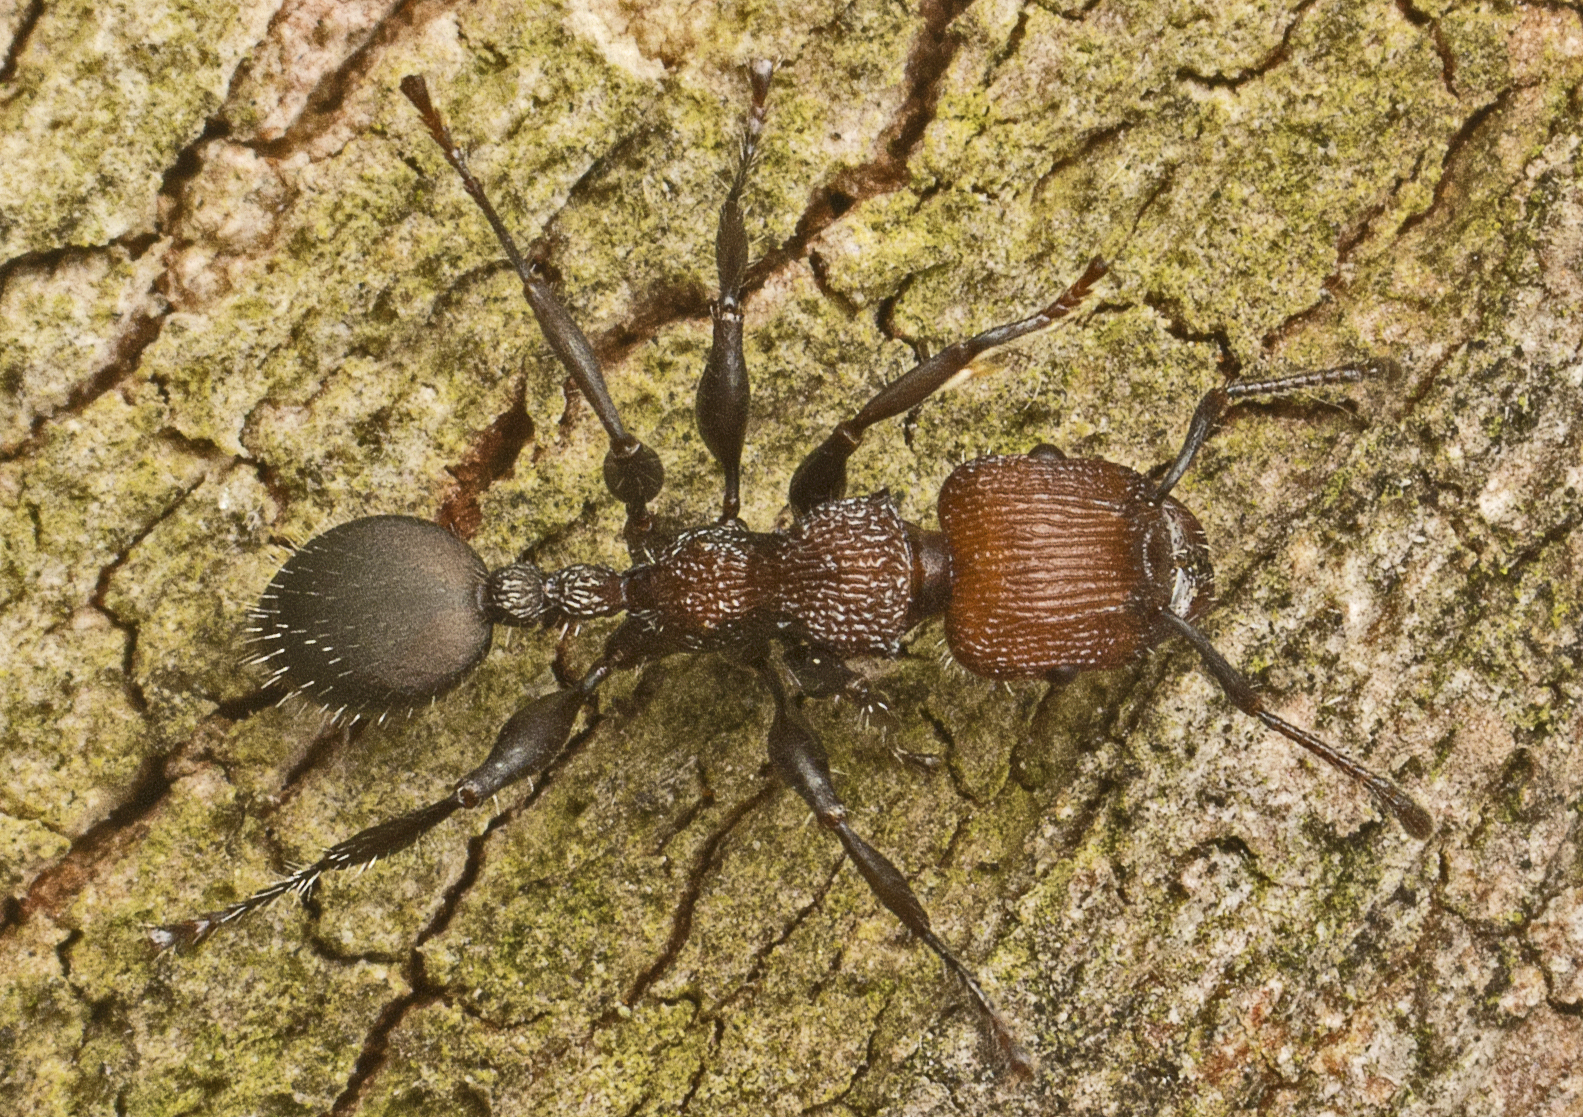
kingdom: Animalia
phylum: Arthropoda
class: Insecta
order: Hymenoptera
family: Formicidae
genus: Podomyrma
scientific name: Podomyrma micans
